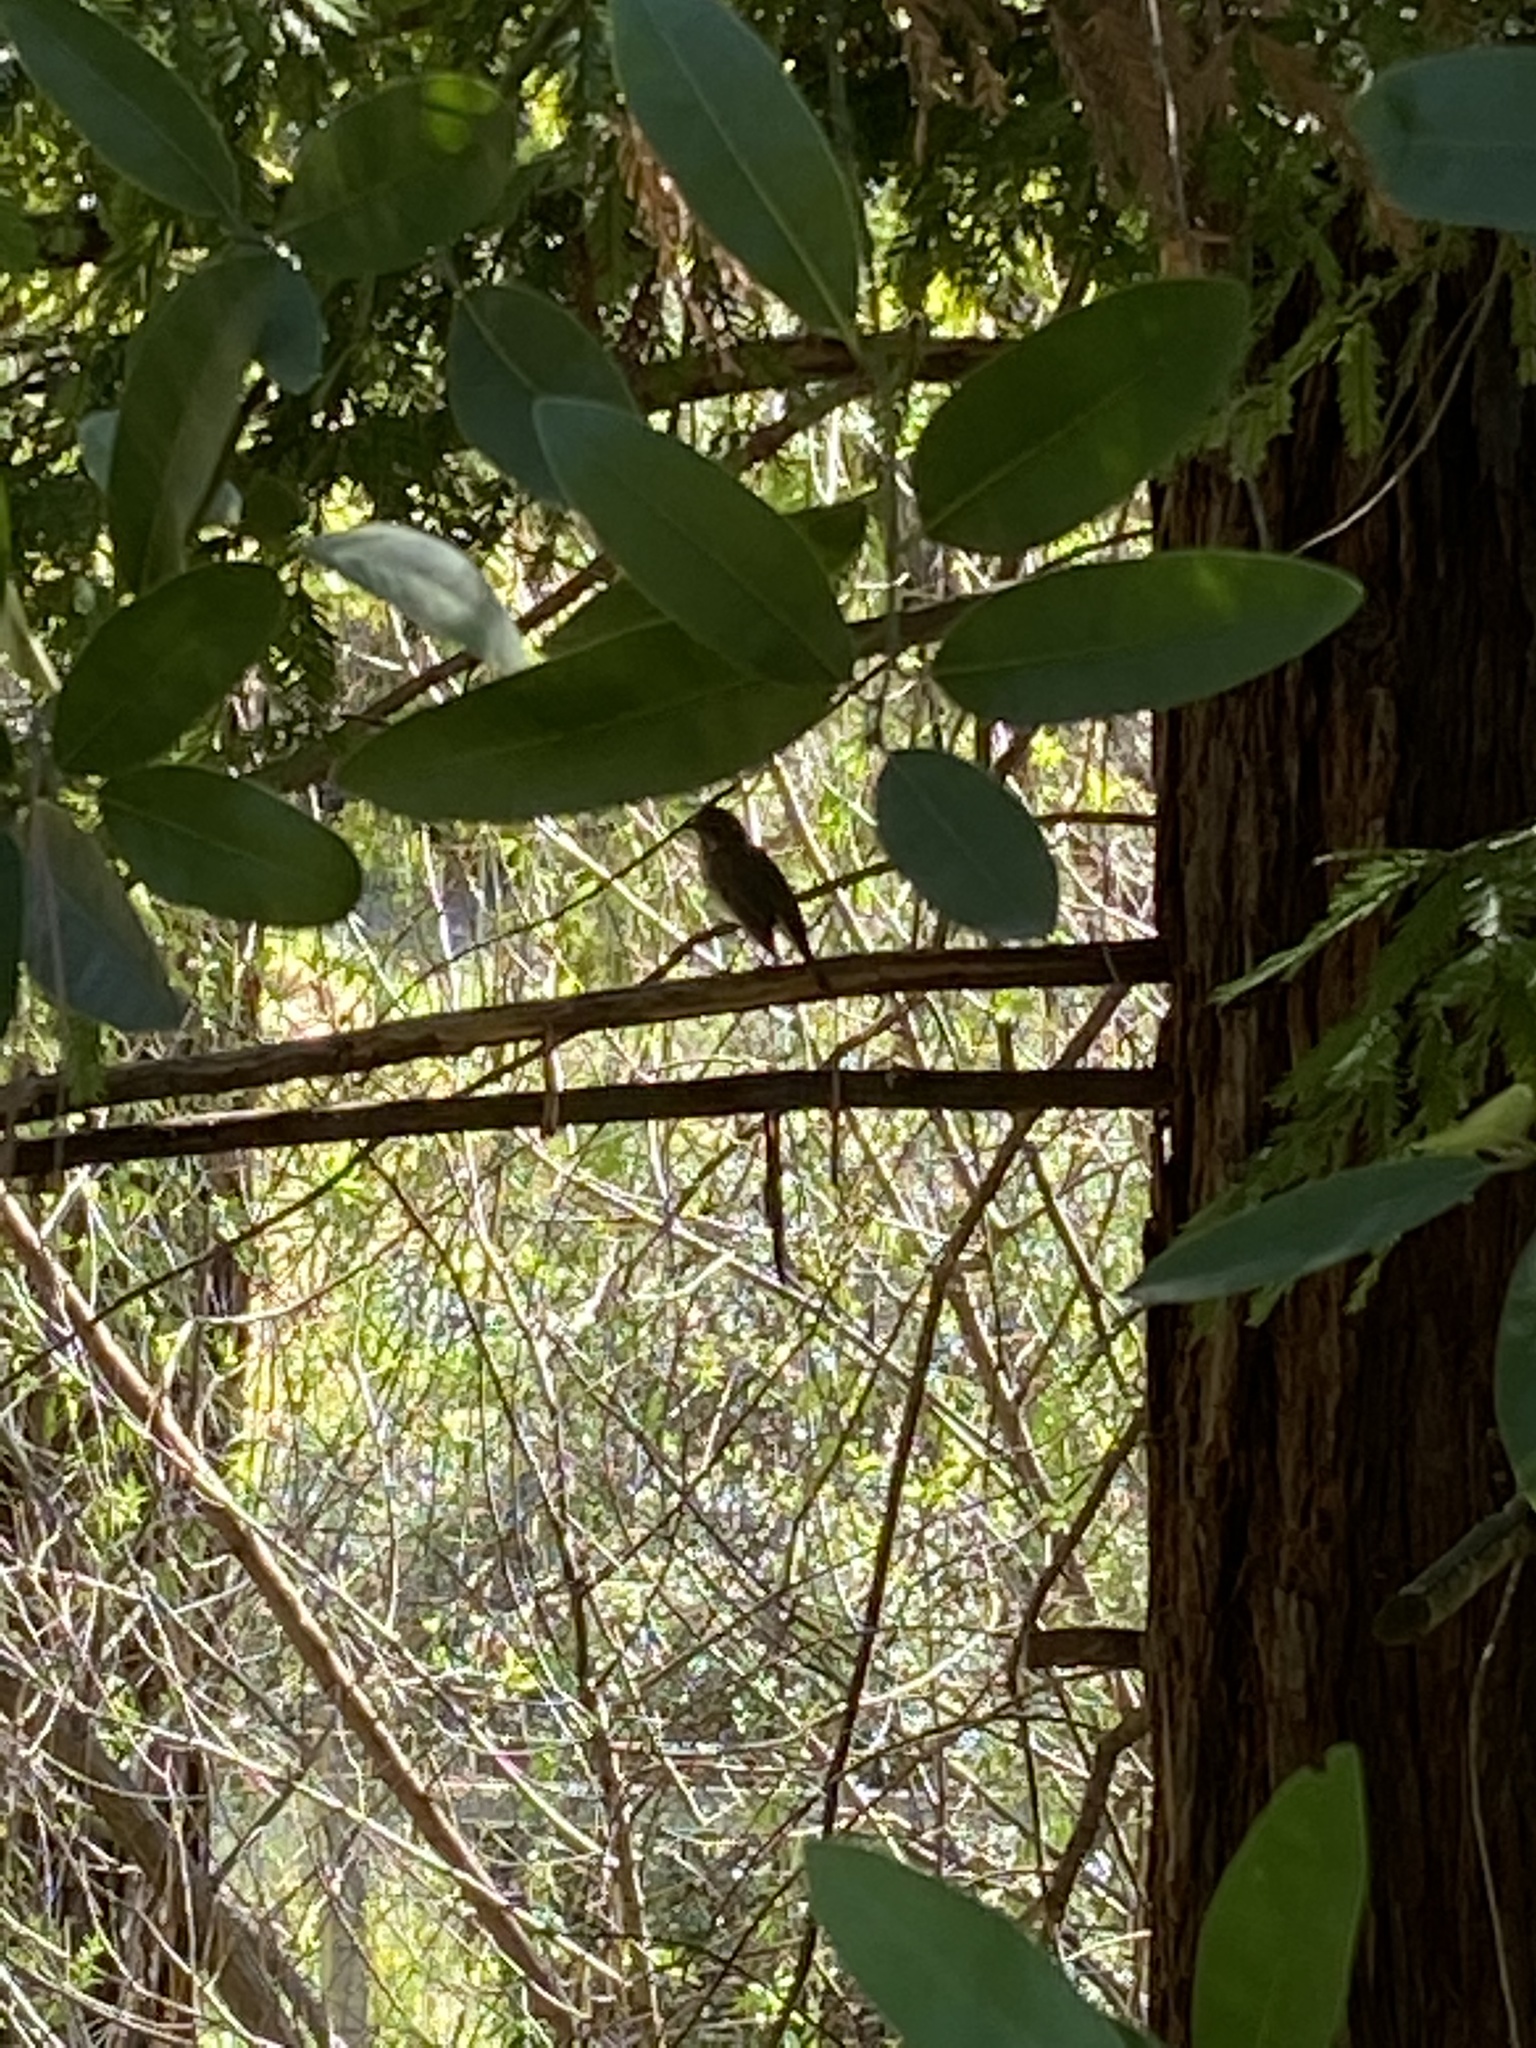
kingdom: Animalia
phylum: Chordata
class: Aves
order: Passeriformes
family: Turdidae
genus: Catharus
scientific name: Catharus guttatus
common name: Hermit thrush
